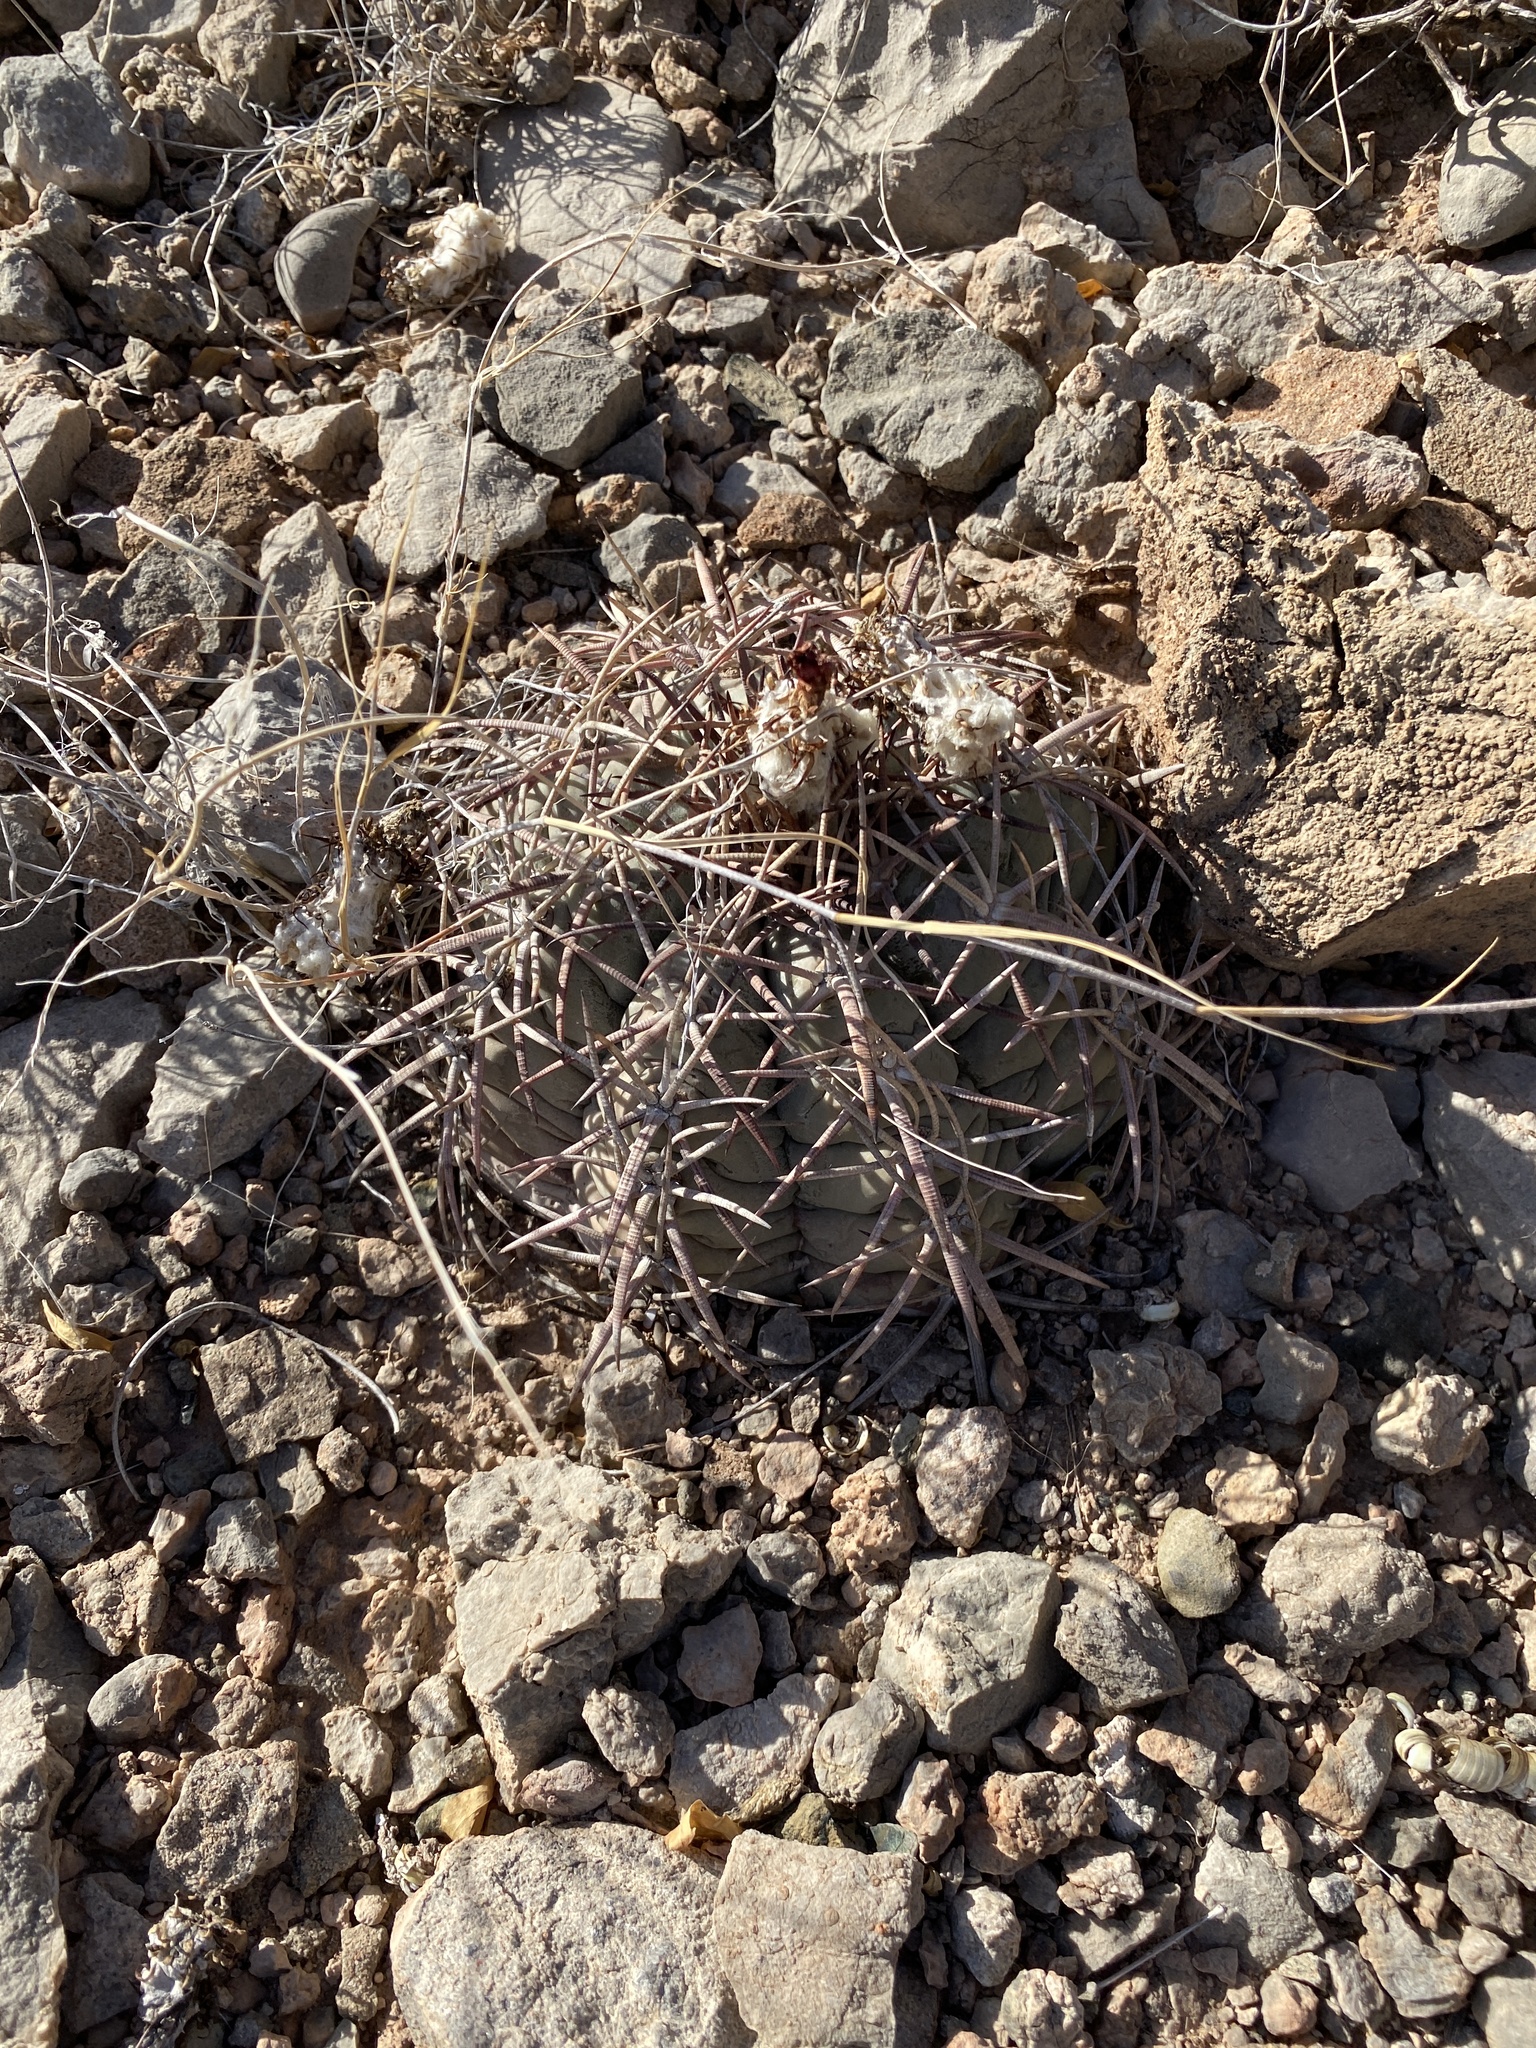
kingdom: Plantae
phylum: Tracheophyta
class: Magnoliopsida
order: Caryophyllales
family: Cactaceae
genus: Echinocactus
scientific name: Echinocactus horizonthalonius
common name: Devilshead
